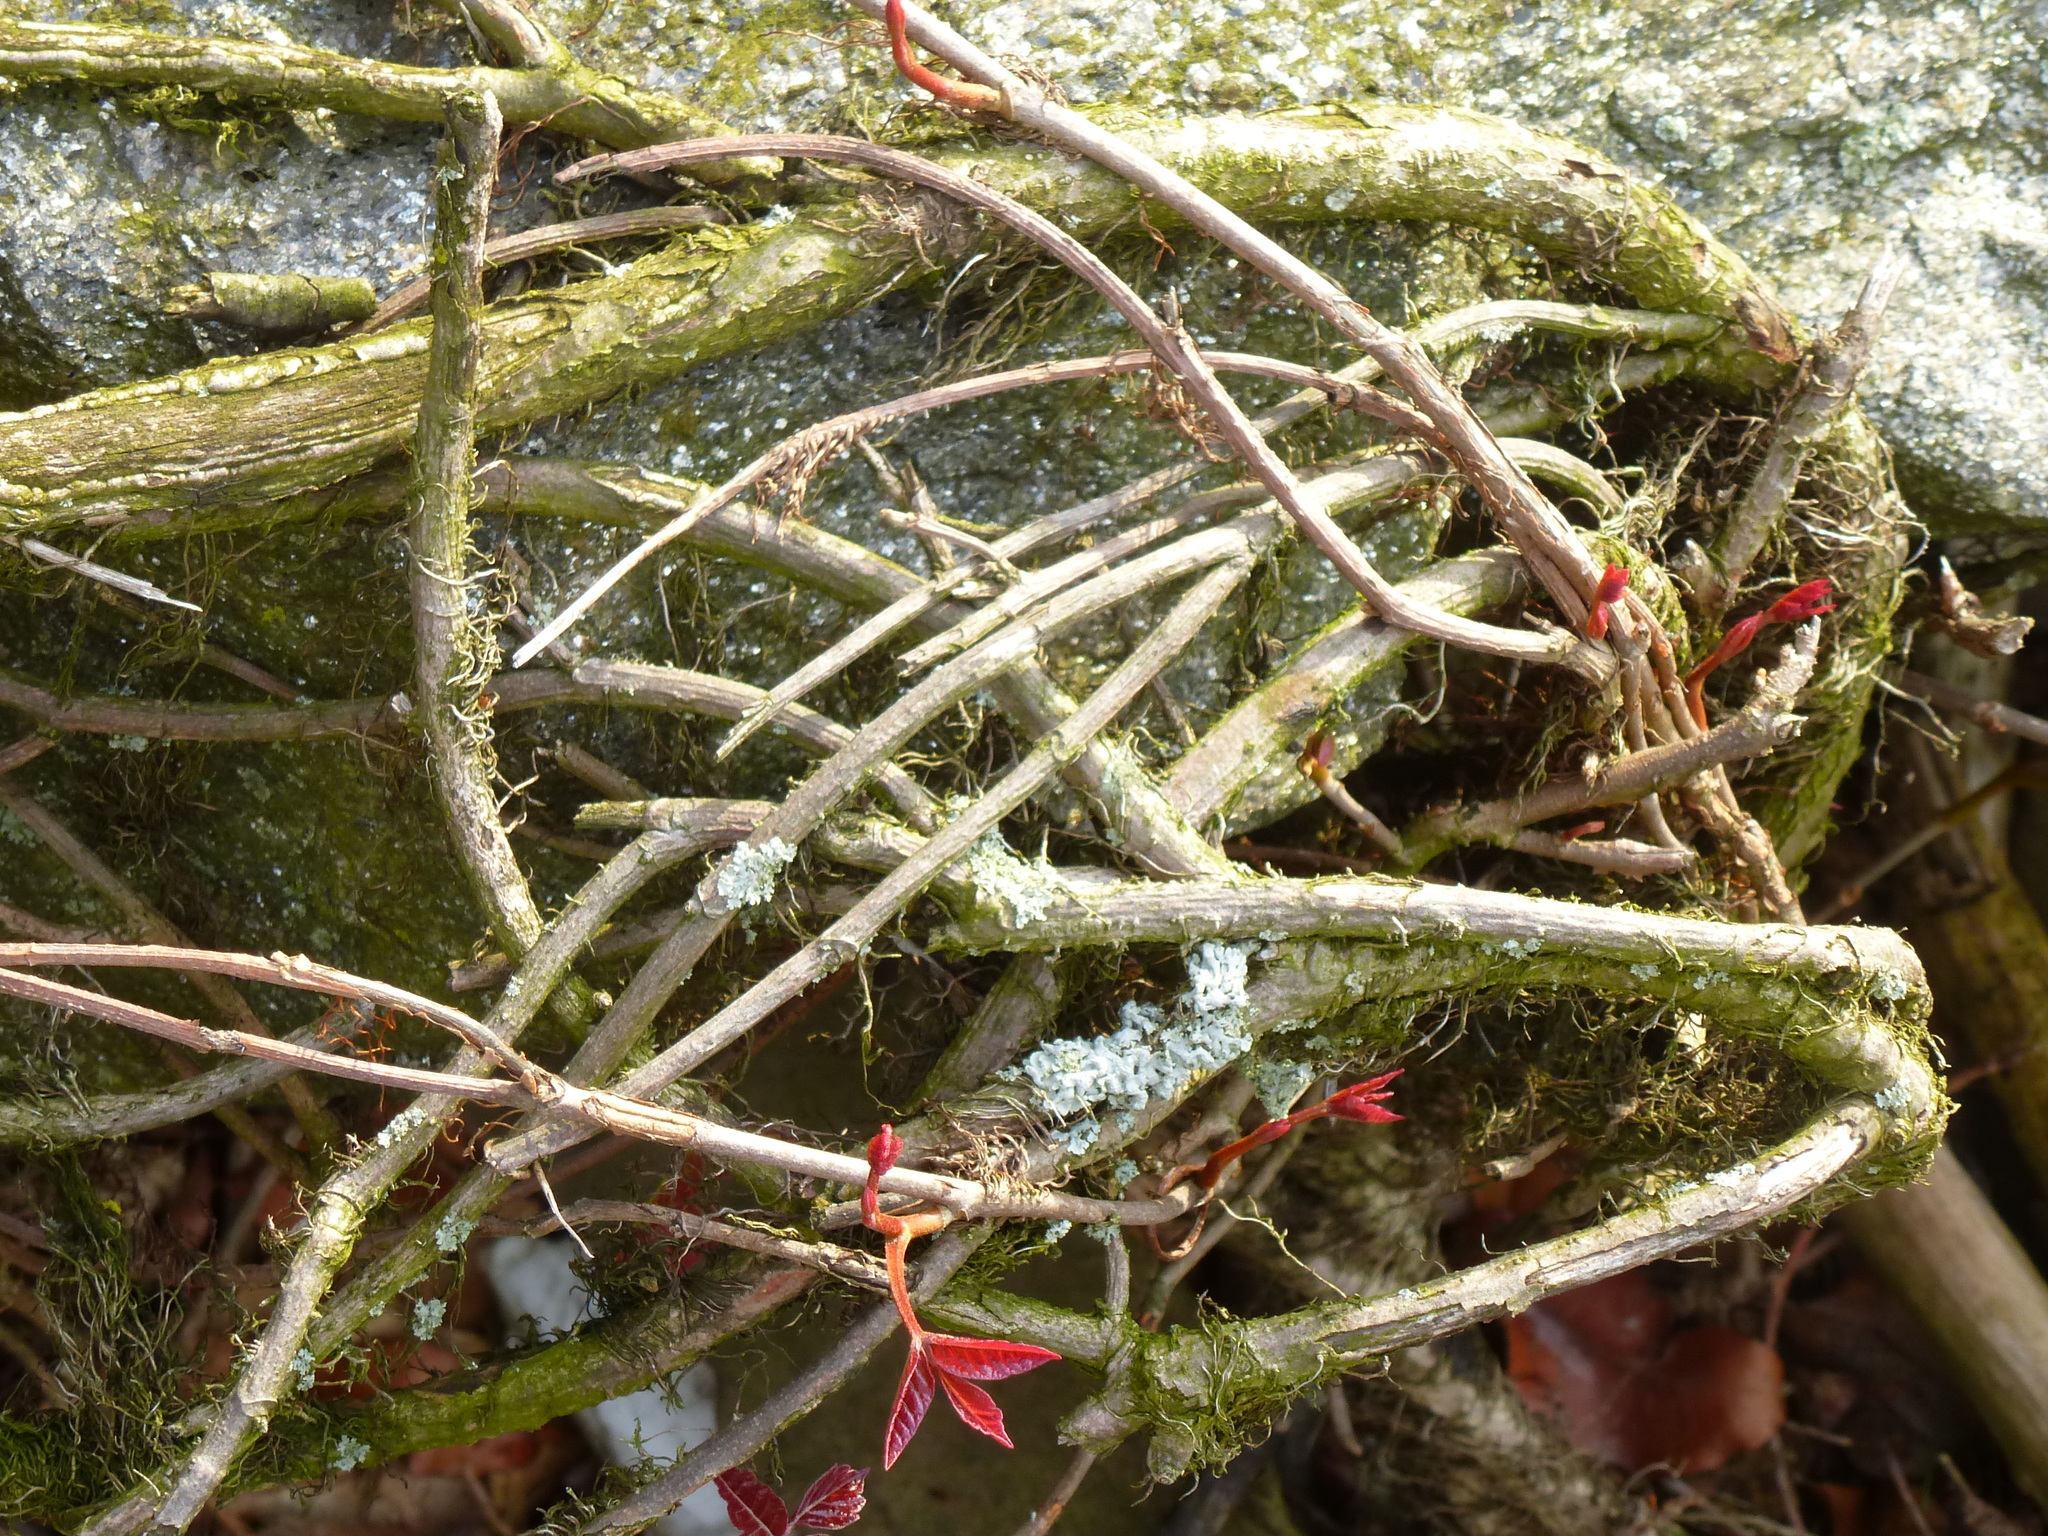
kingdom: Plantae
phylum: Tracheophyta
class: Magnoliopsida
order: Sapindales
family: Anacardiaceae
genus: Toxicodendron
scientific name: Toxicodendron radicans
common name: Poison ivy
